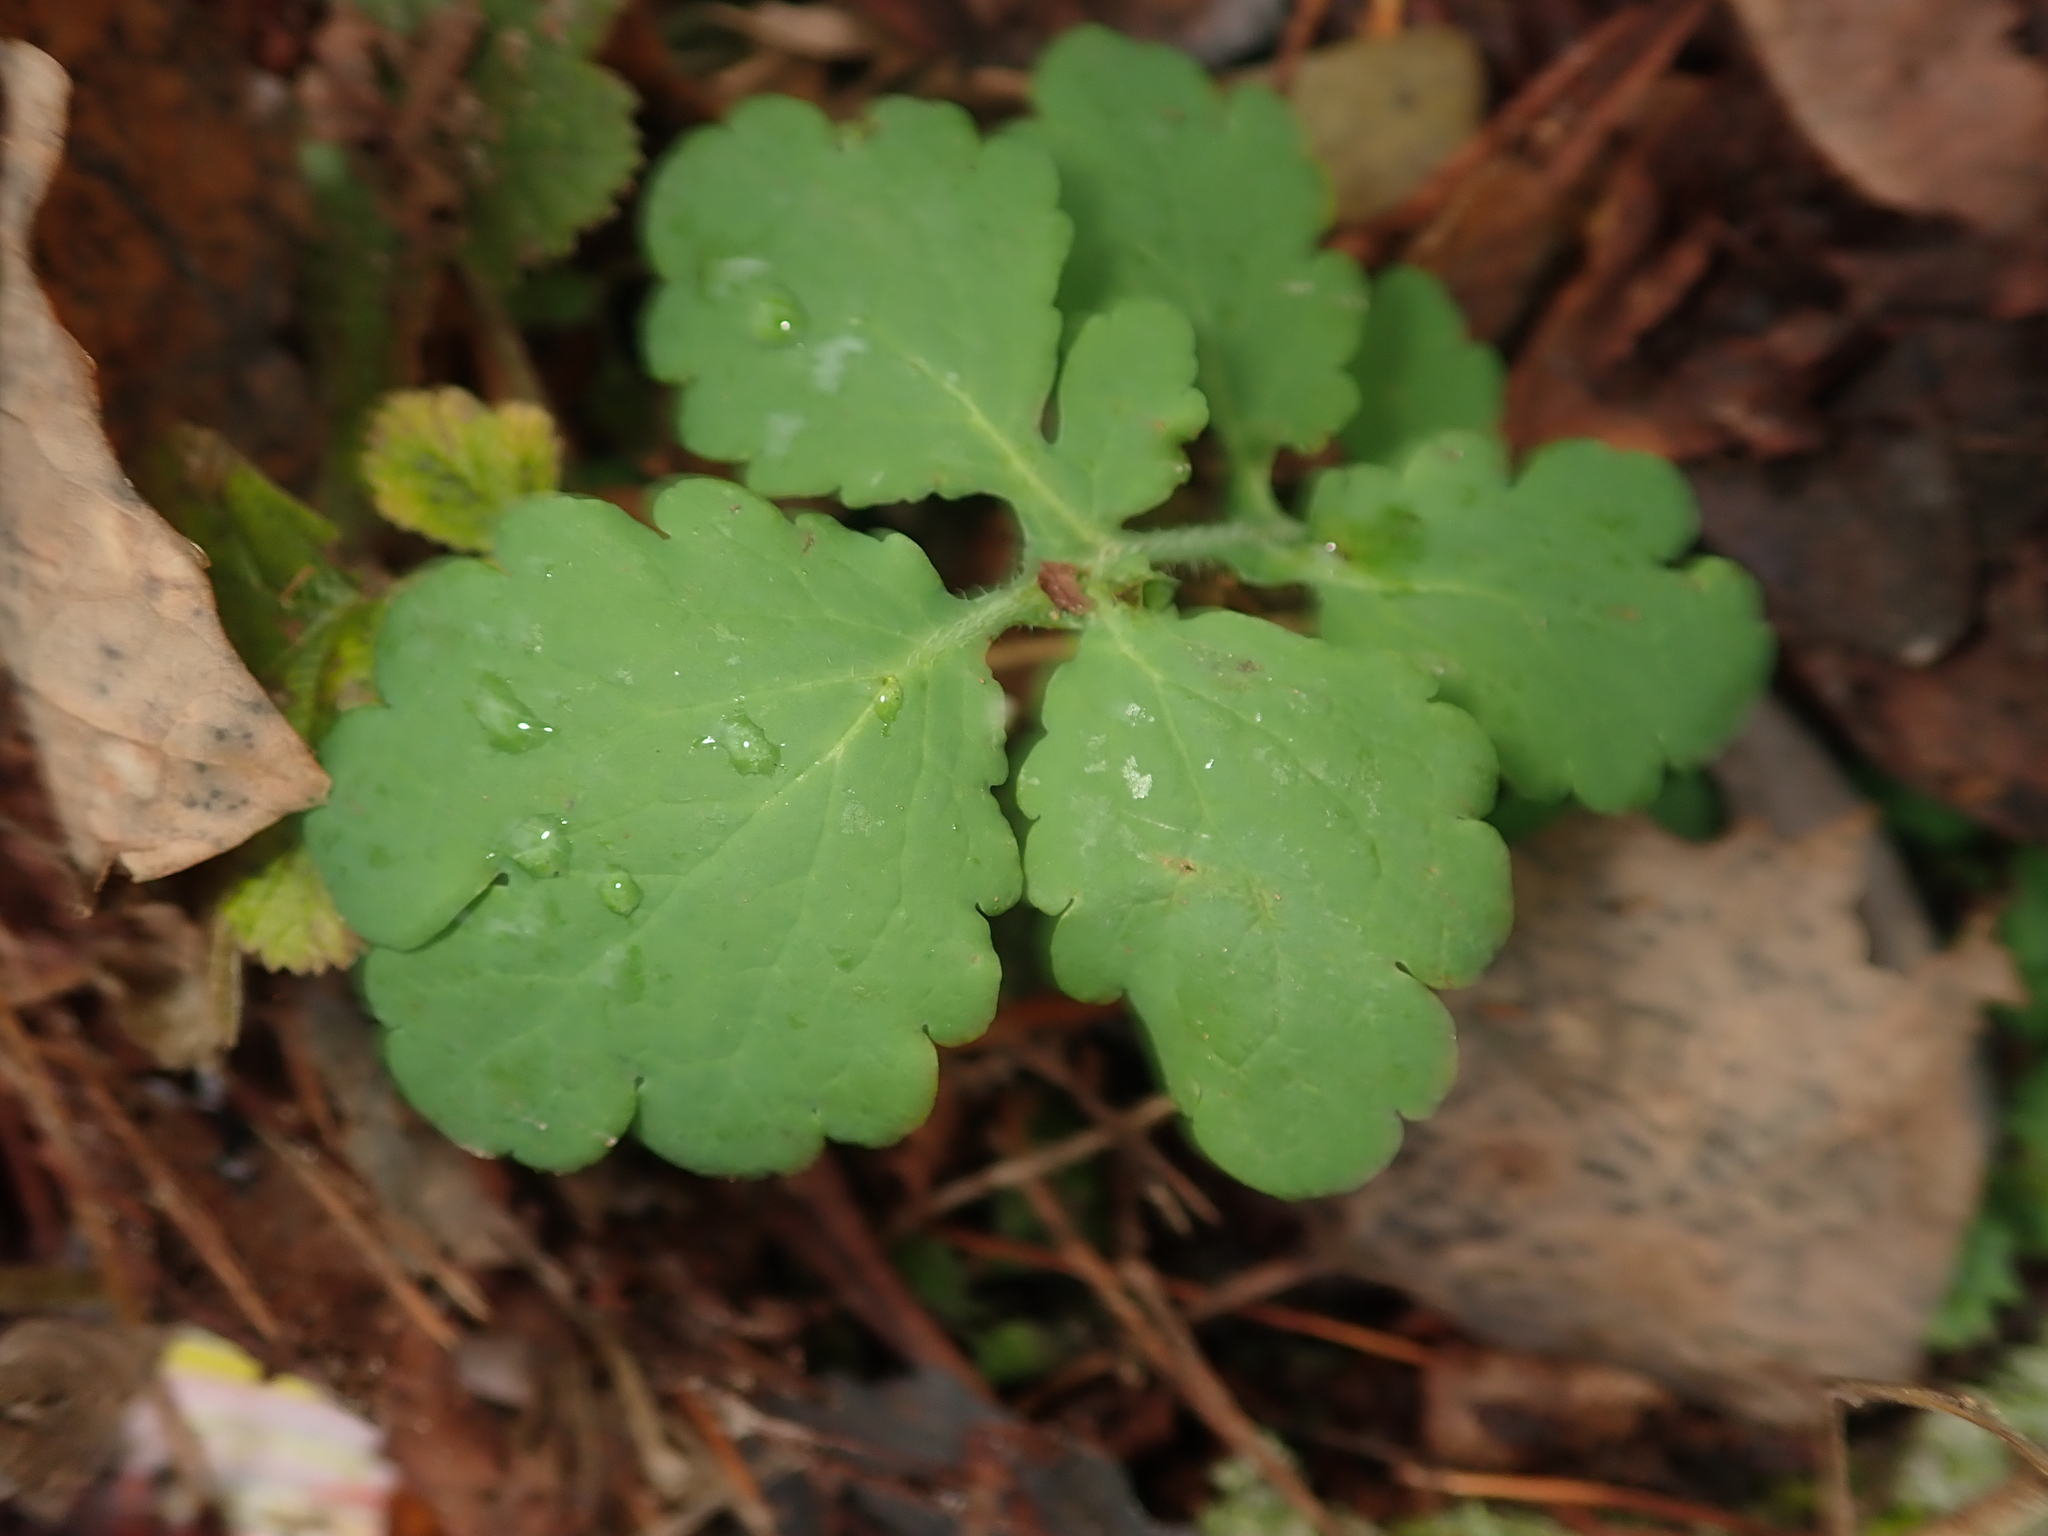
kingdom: Plantae
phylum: Tracheophyta
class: Magnoliopsida
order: Ranunculales
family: Papaveraceae
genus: Chelidonium
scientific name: Chelidonium majus
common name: Greater celandine
